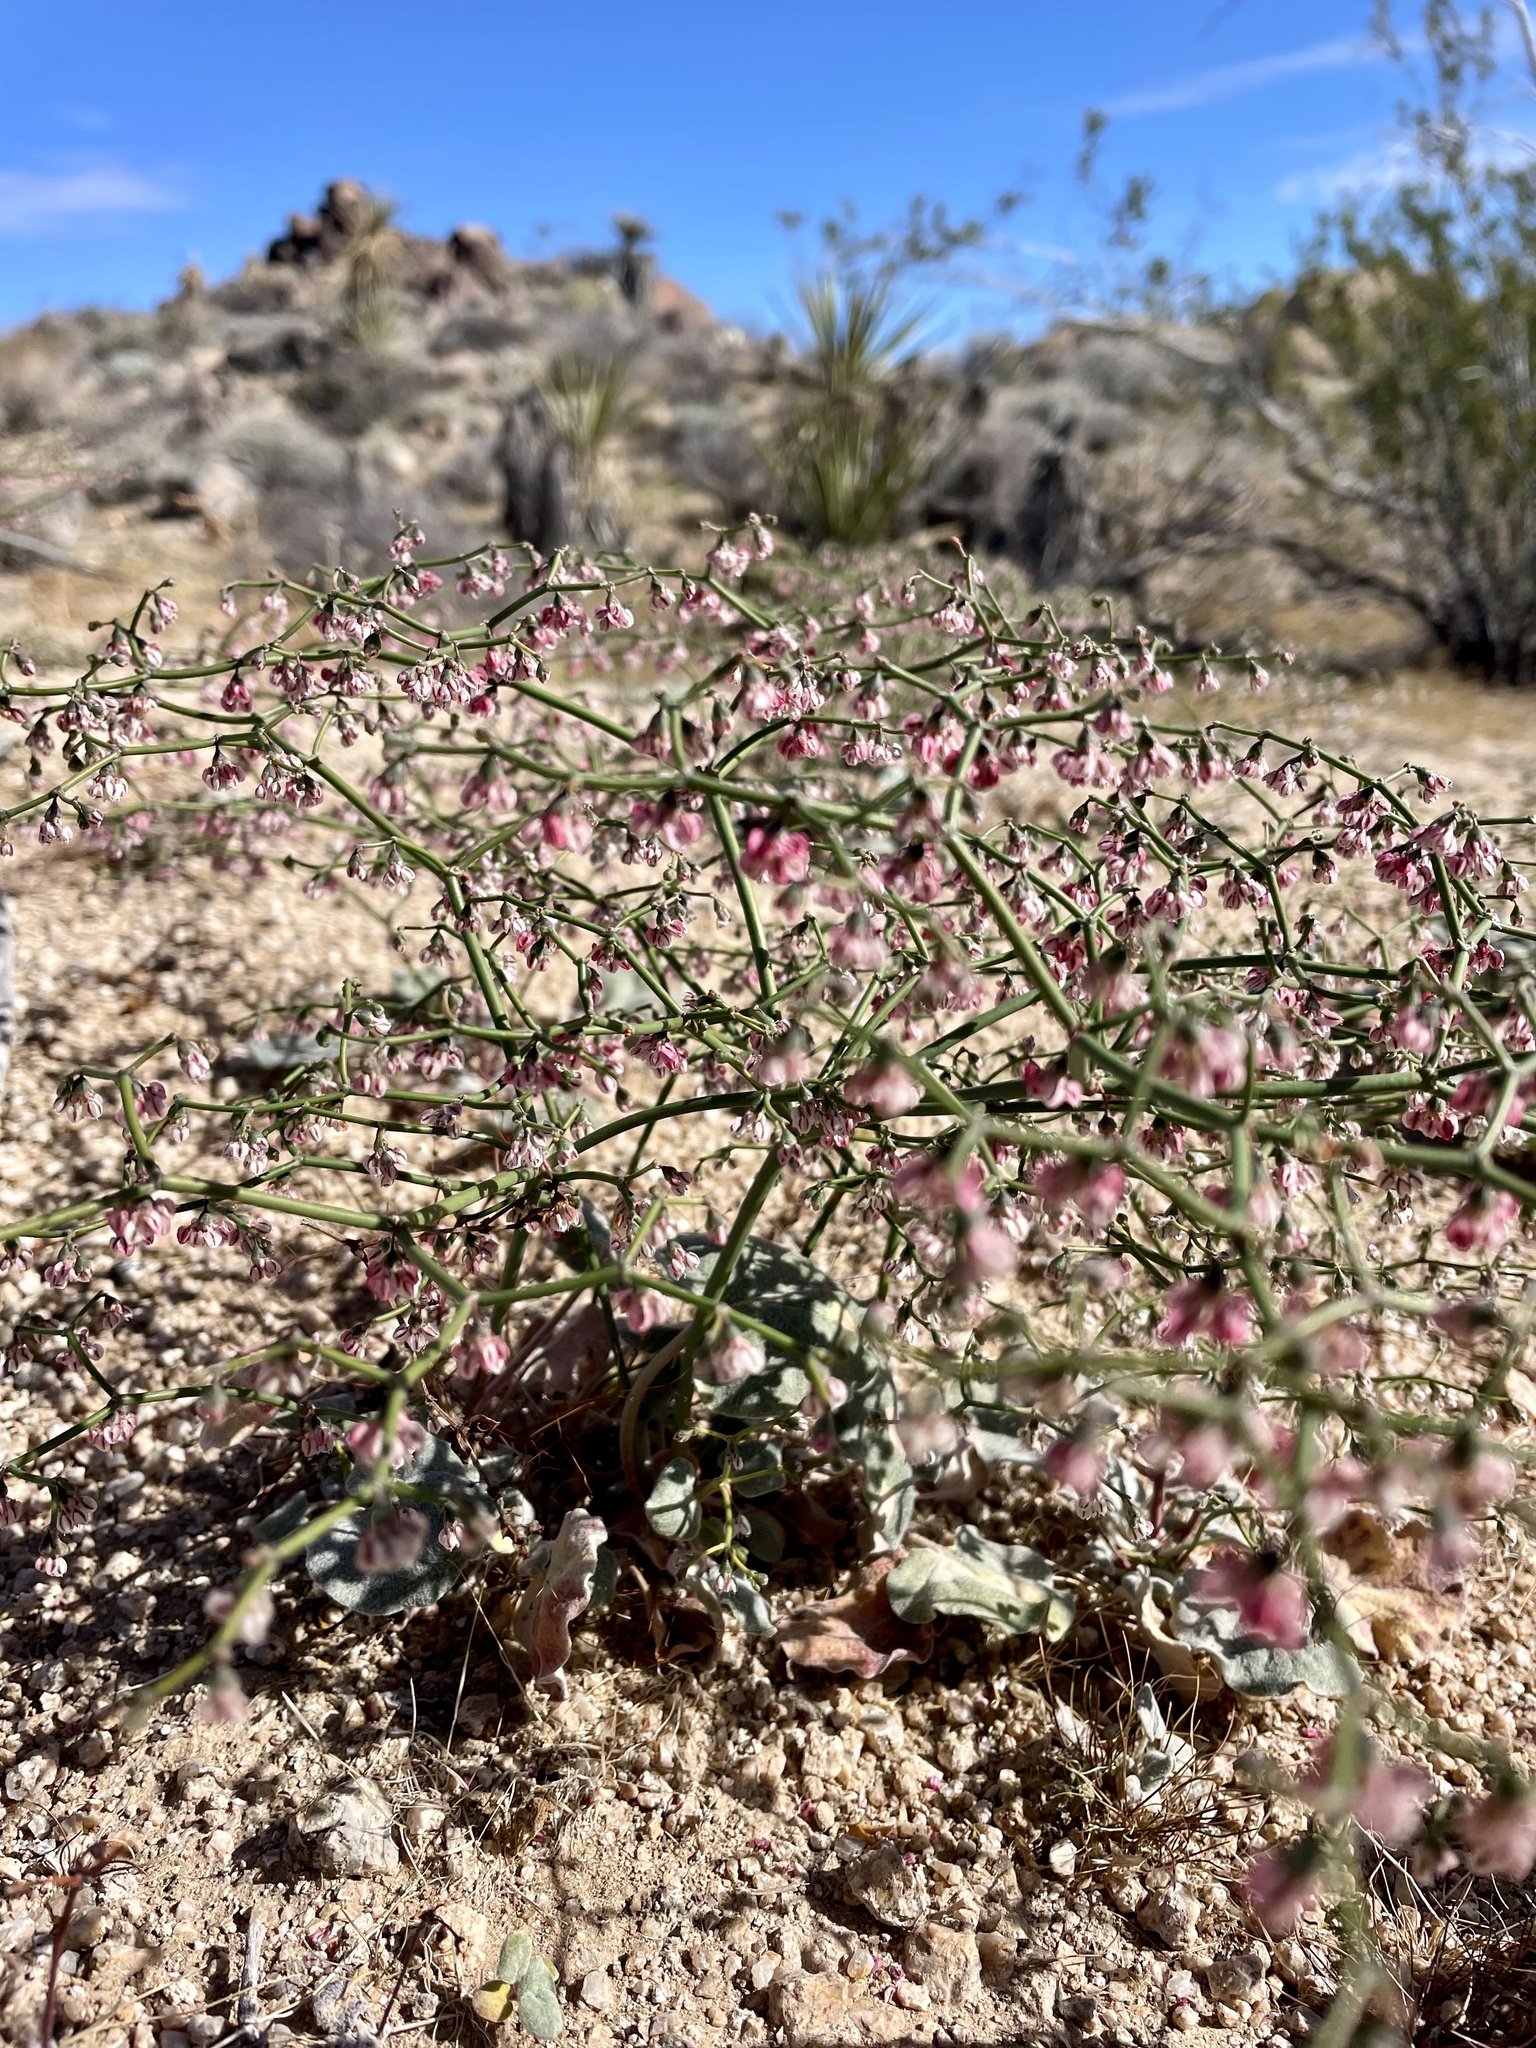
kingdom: Plantae
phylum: Tracheophyta
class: Magnoliopsida
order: Caryophyllales
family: Polygonaceae
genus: Eriogonum
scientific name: Eriogonum deflexum
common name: Skeleton-weed
